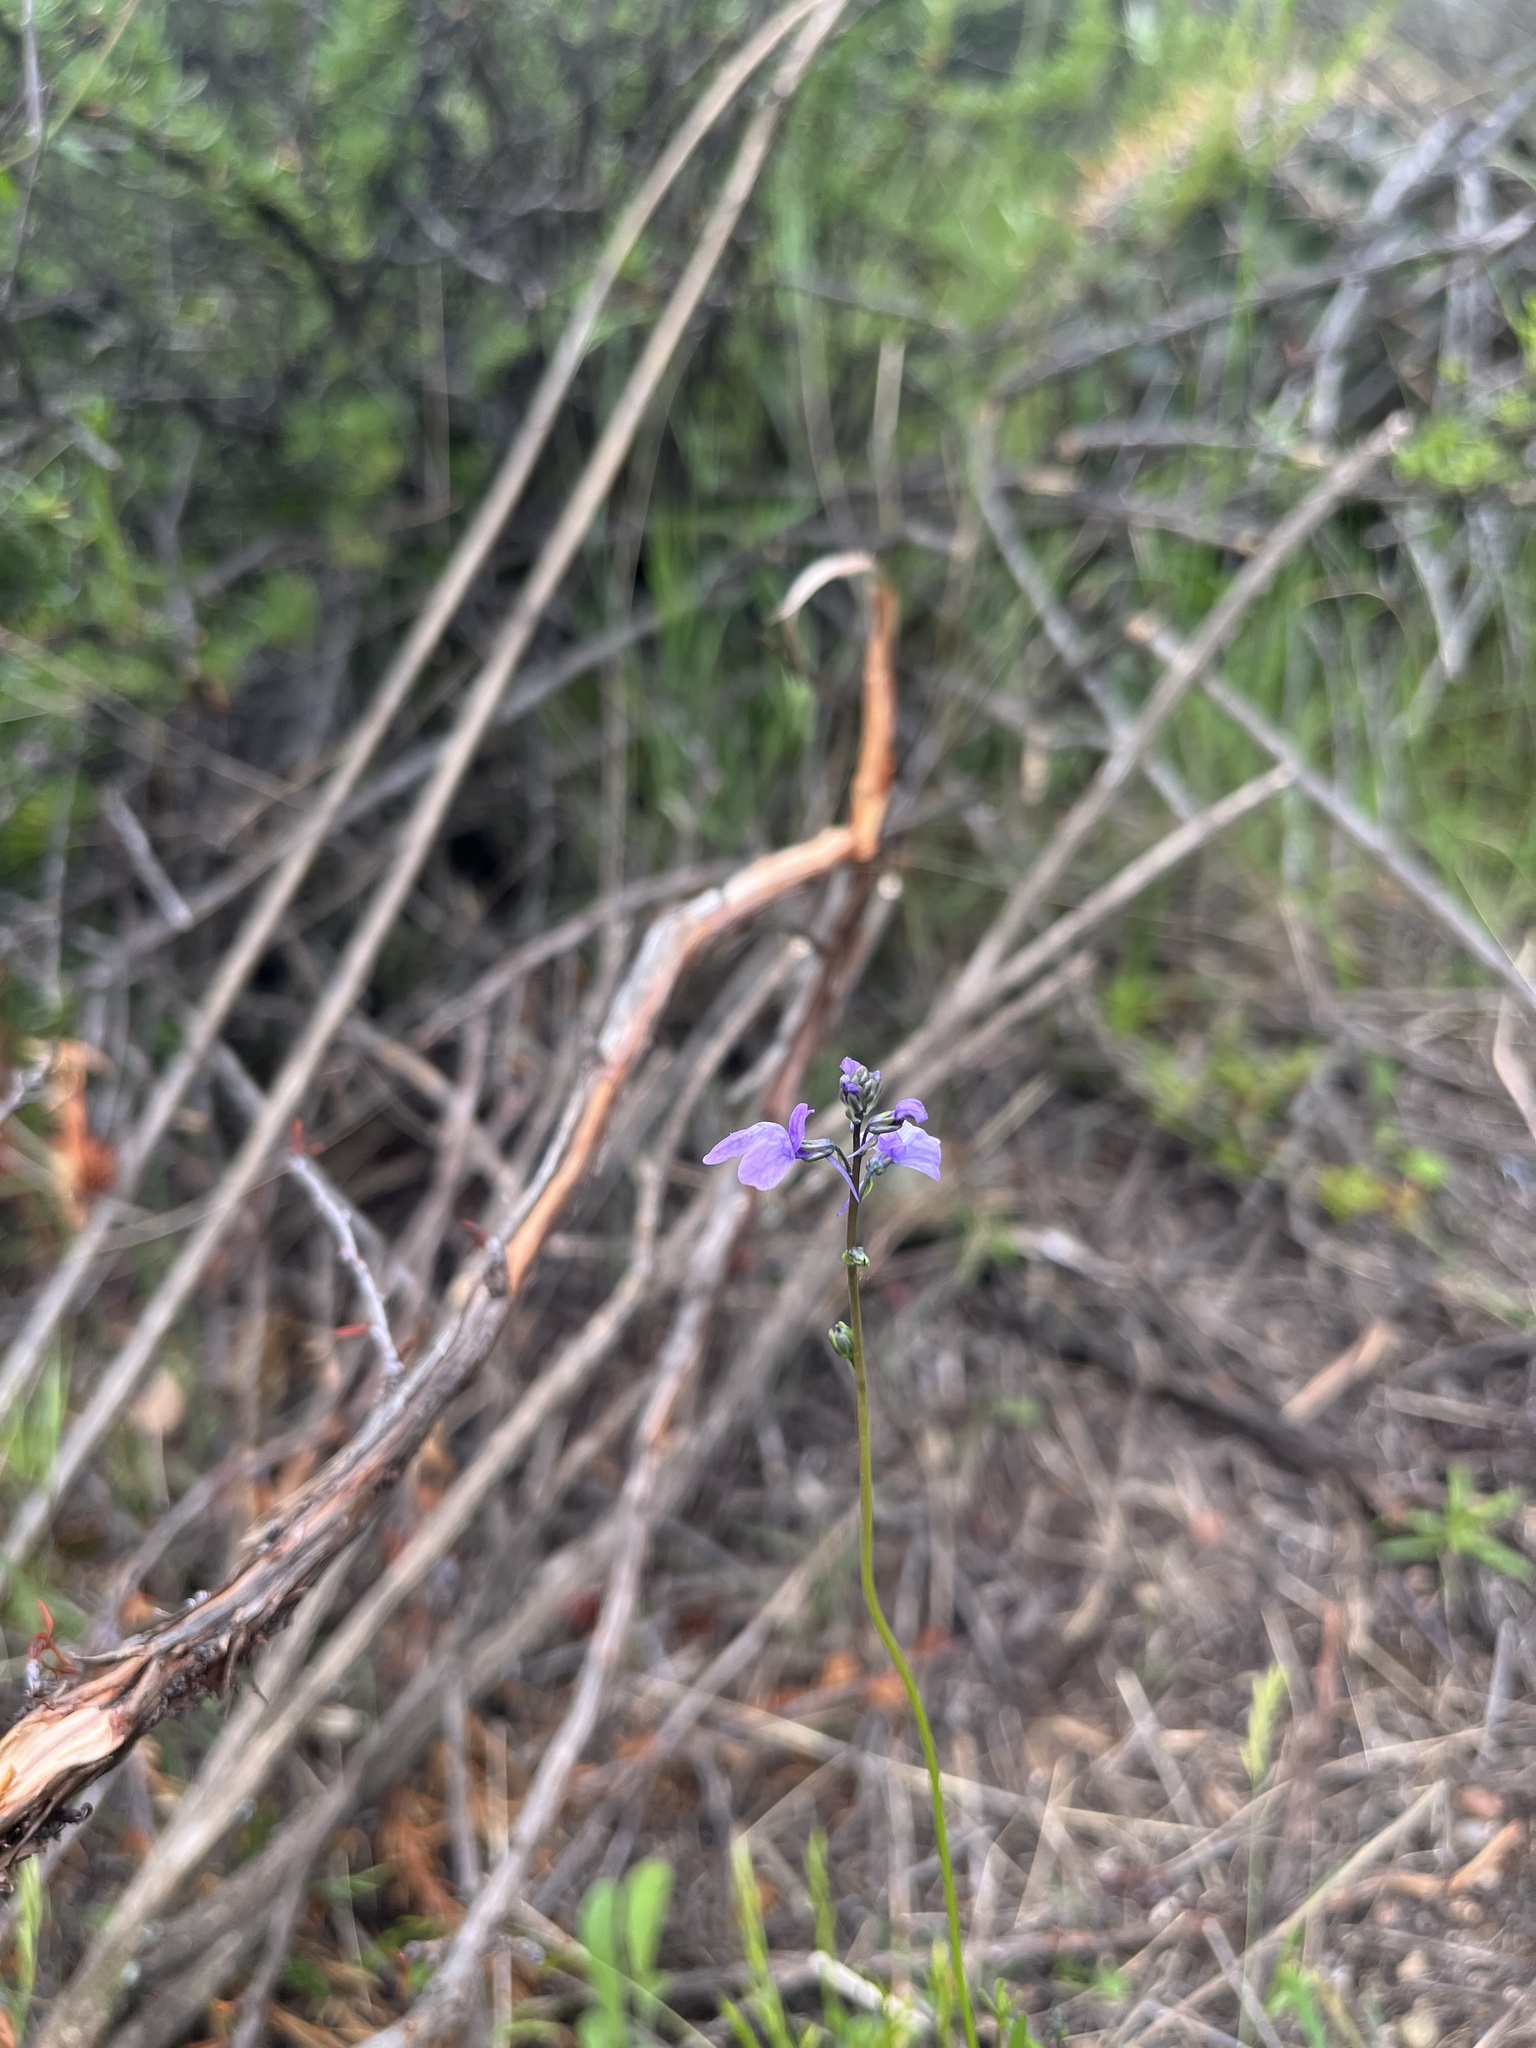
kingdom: Plantae
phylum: Tracheophyta
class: Magnoliopsida
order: Lamiales
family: Plantaginaceae
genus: Nuttallanthus
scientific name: Nuttallanthus texanus
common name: Texas toadflax
